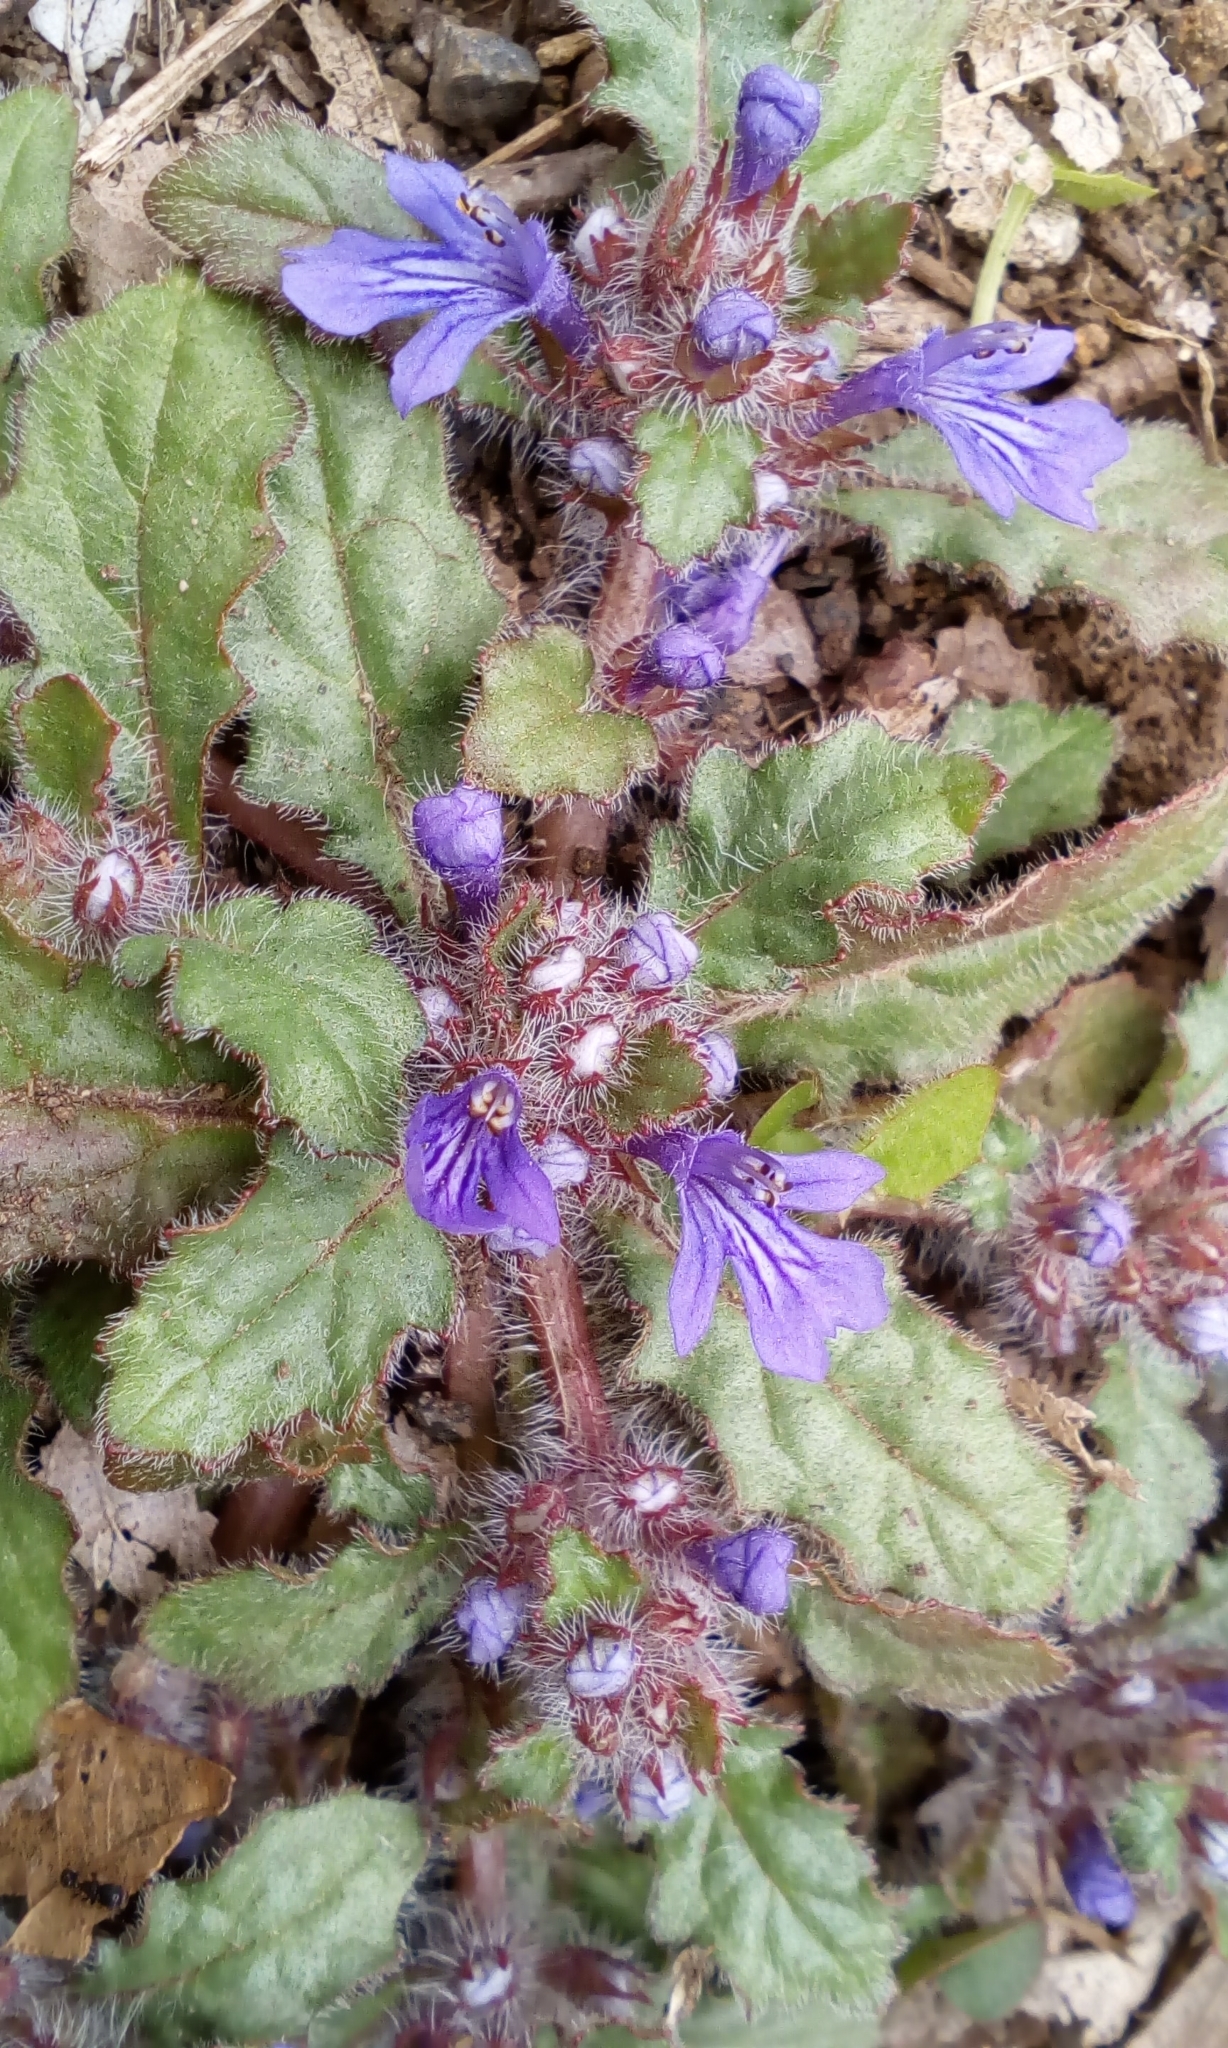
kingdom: Plantae
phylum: Tracheophyta
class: Magnoliopsida
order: Lamiales
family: Lamiaceae
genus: Ajuga
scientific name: Ajuga decumbens
